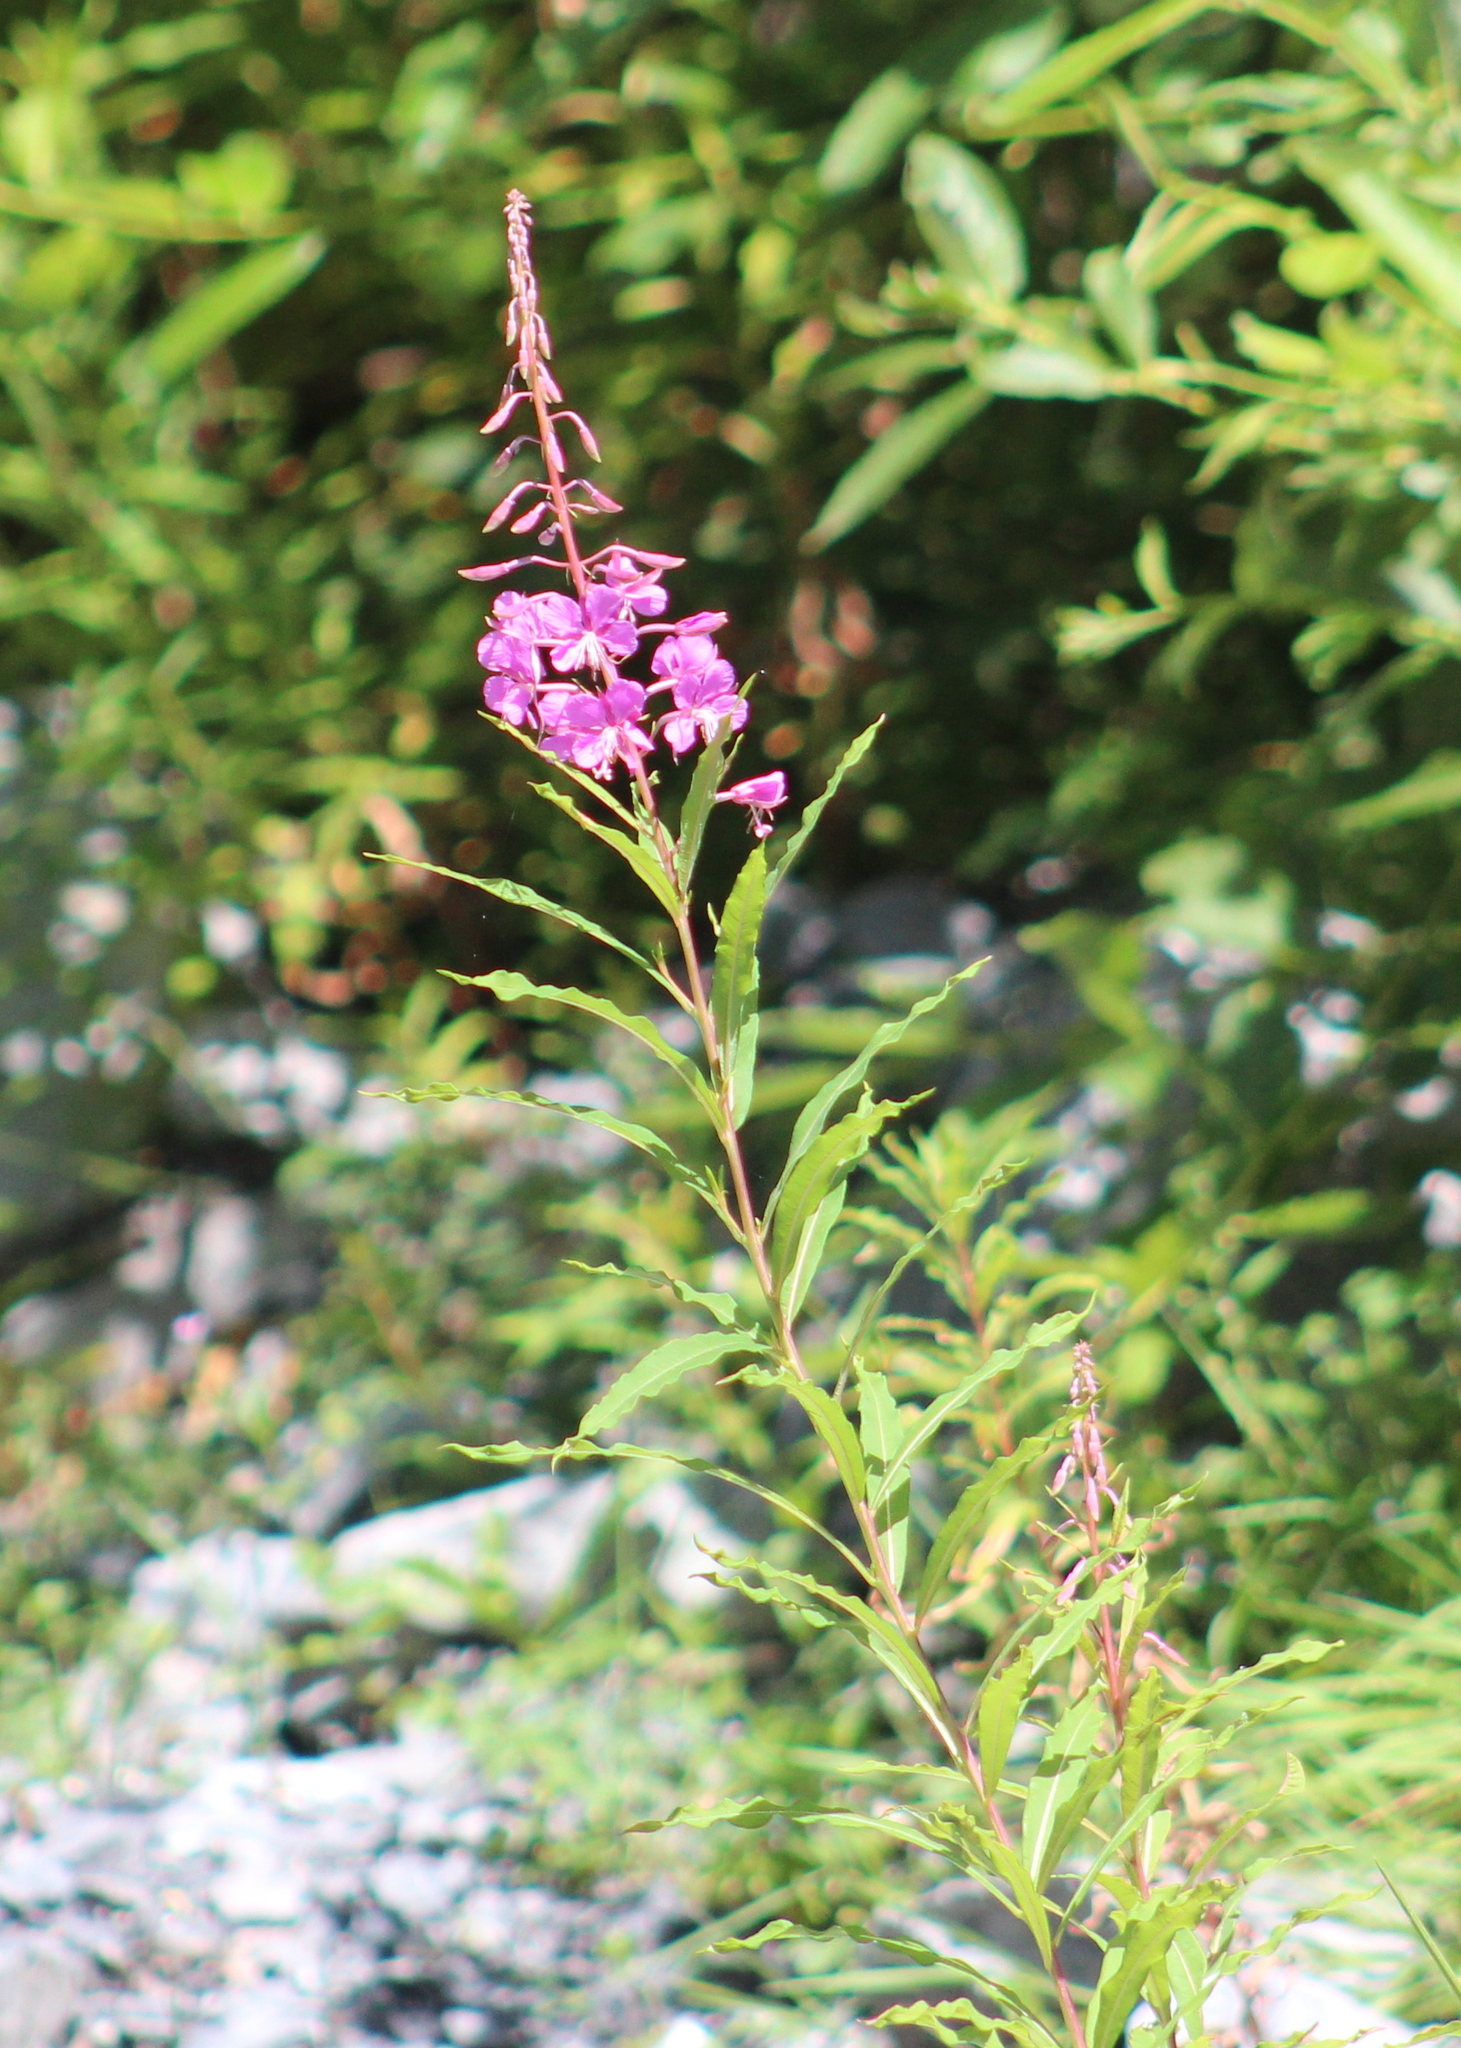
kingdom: Plantae
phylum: Tracheophyta
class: Magnoliopsida
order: Myrtales
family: Onagraceae
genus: Chamaenerion
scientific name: Chamaenerion angustifolium
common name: Fireweed
